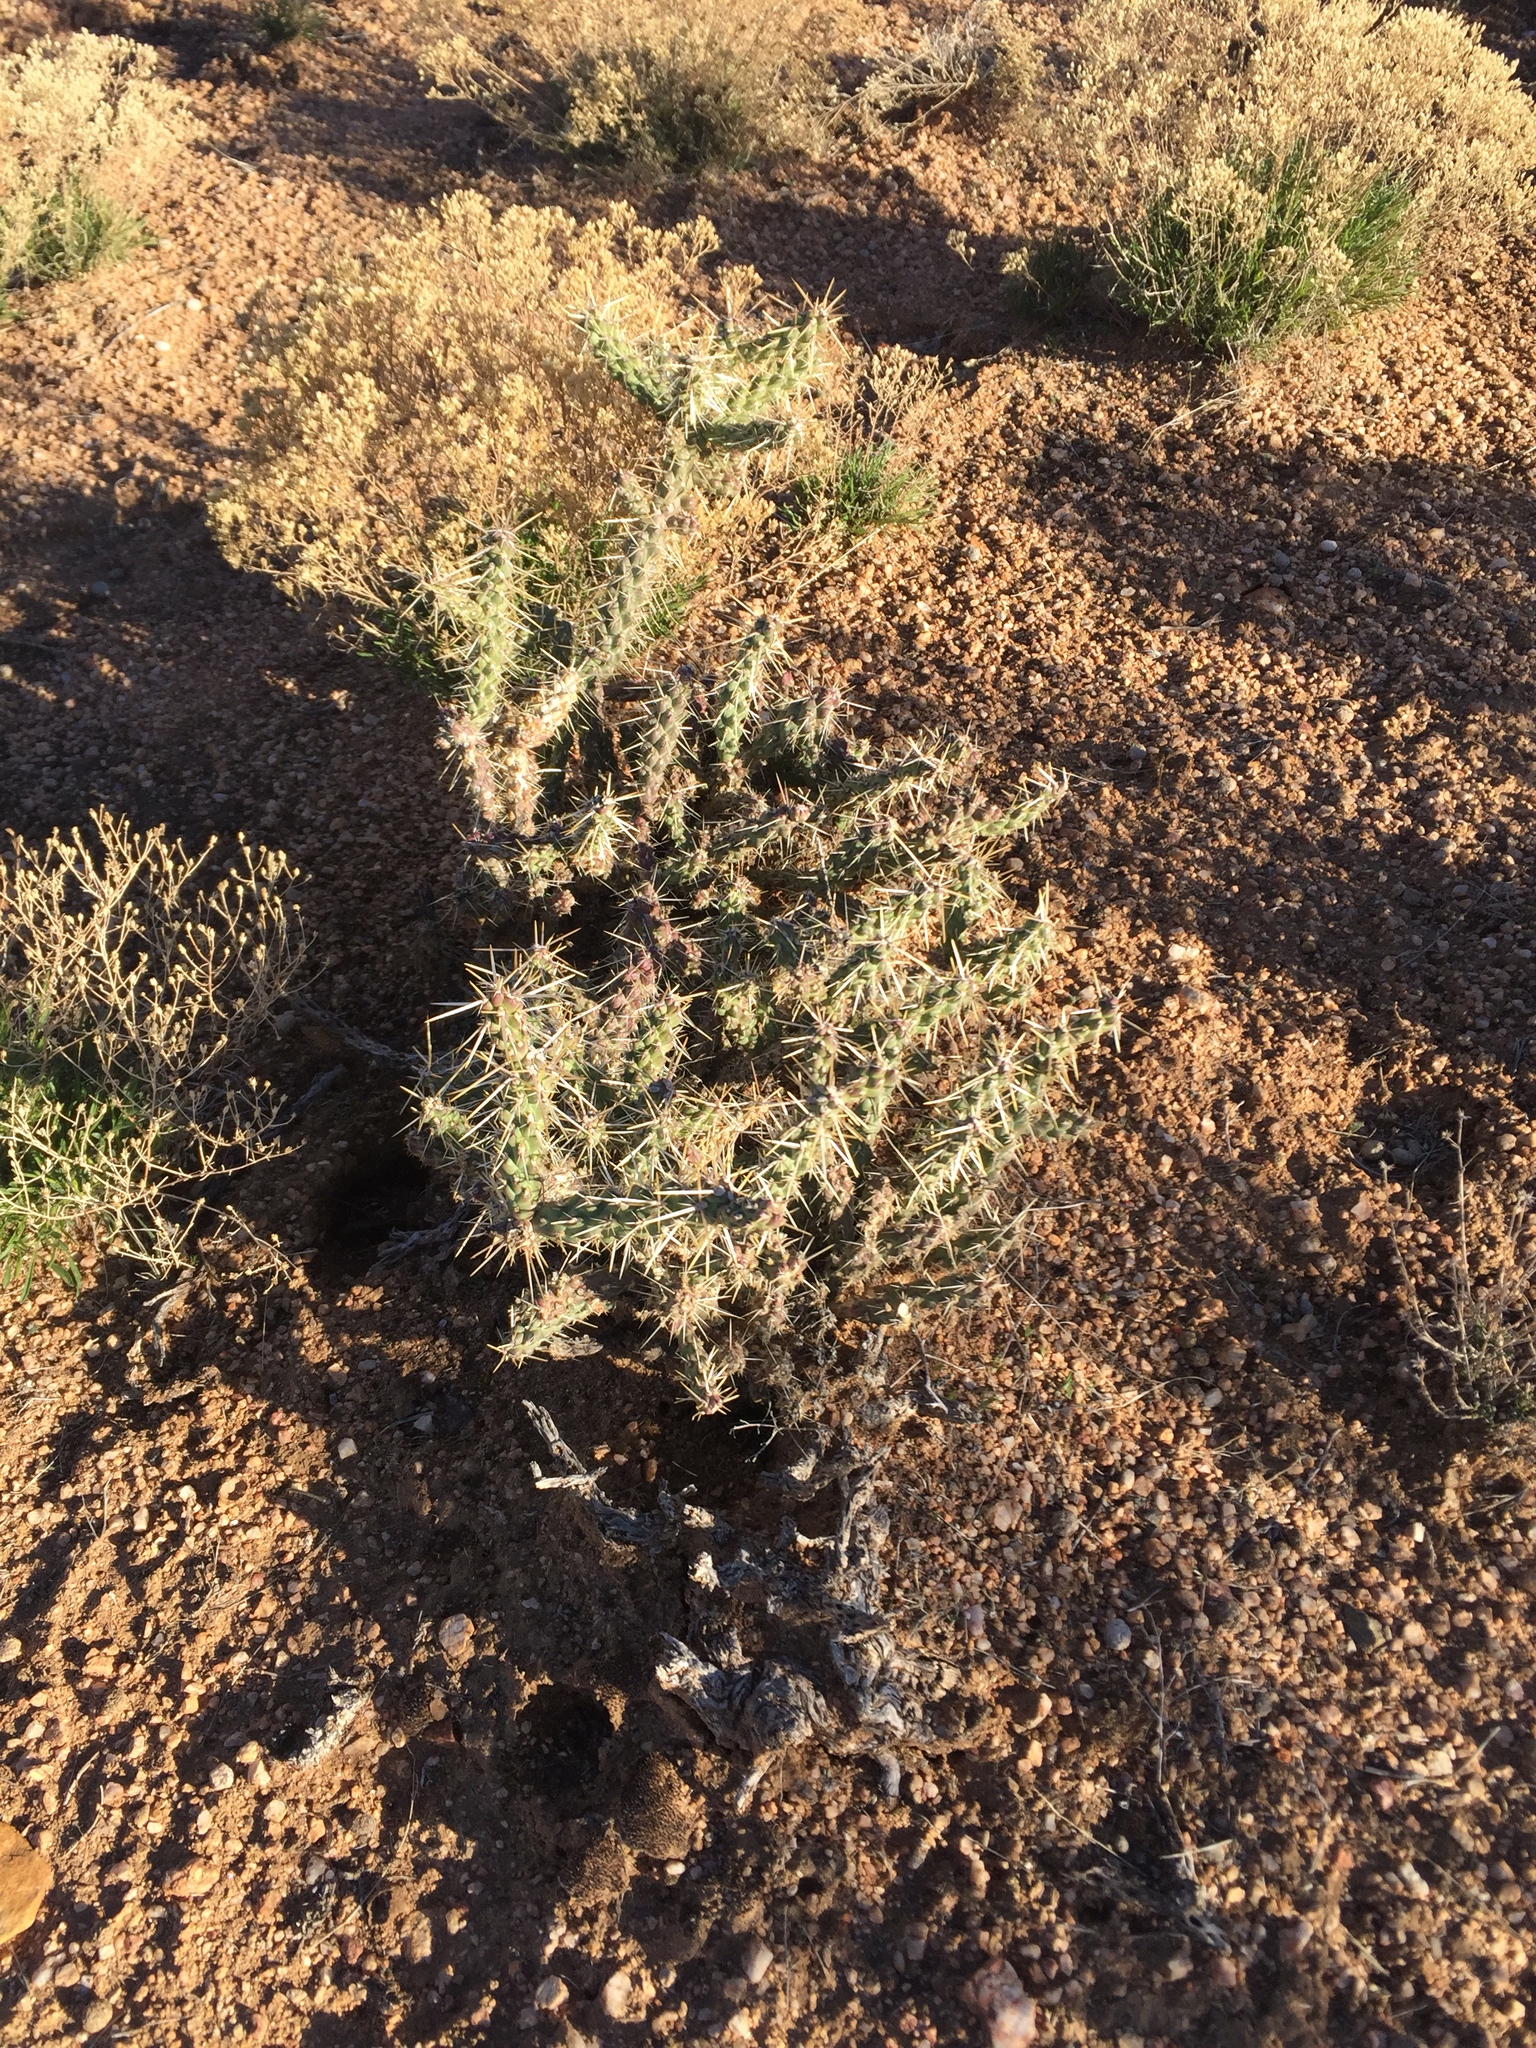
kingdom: Plantae
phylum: Tracheophyta
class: Magnoliopsida
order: Caryophyllales
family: Cactaceae
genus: Cylindropuntia
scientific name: Cylindropuntia whipplei
